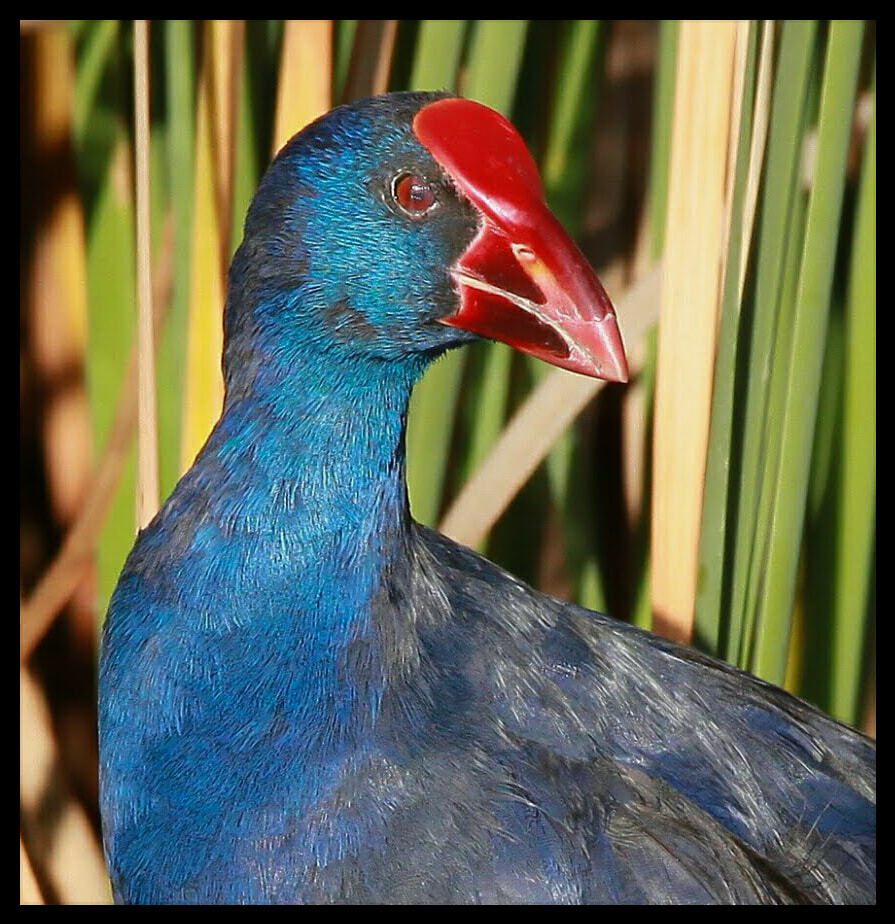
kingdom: Animalia
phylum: Chordata
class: Aves
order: Gruiformes
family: Rallidae
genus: Porphyrio
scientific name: Porphyrio porphyrio
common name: Purple swamphen
